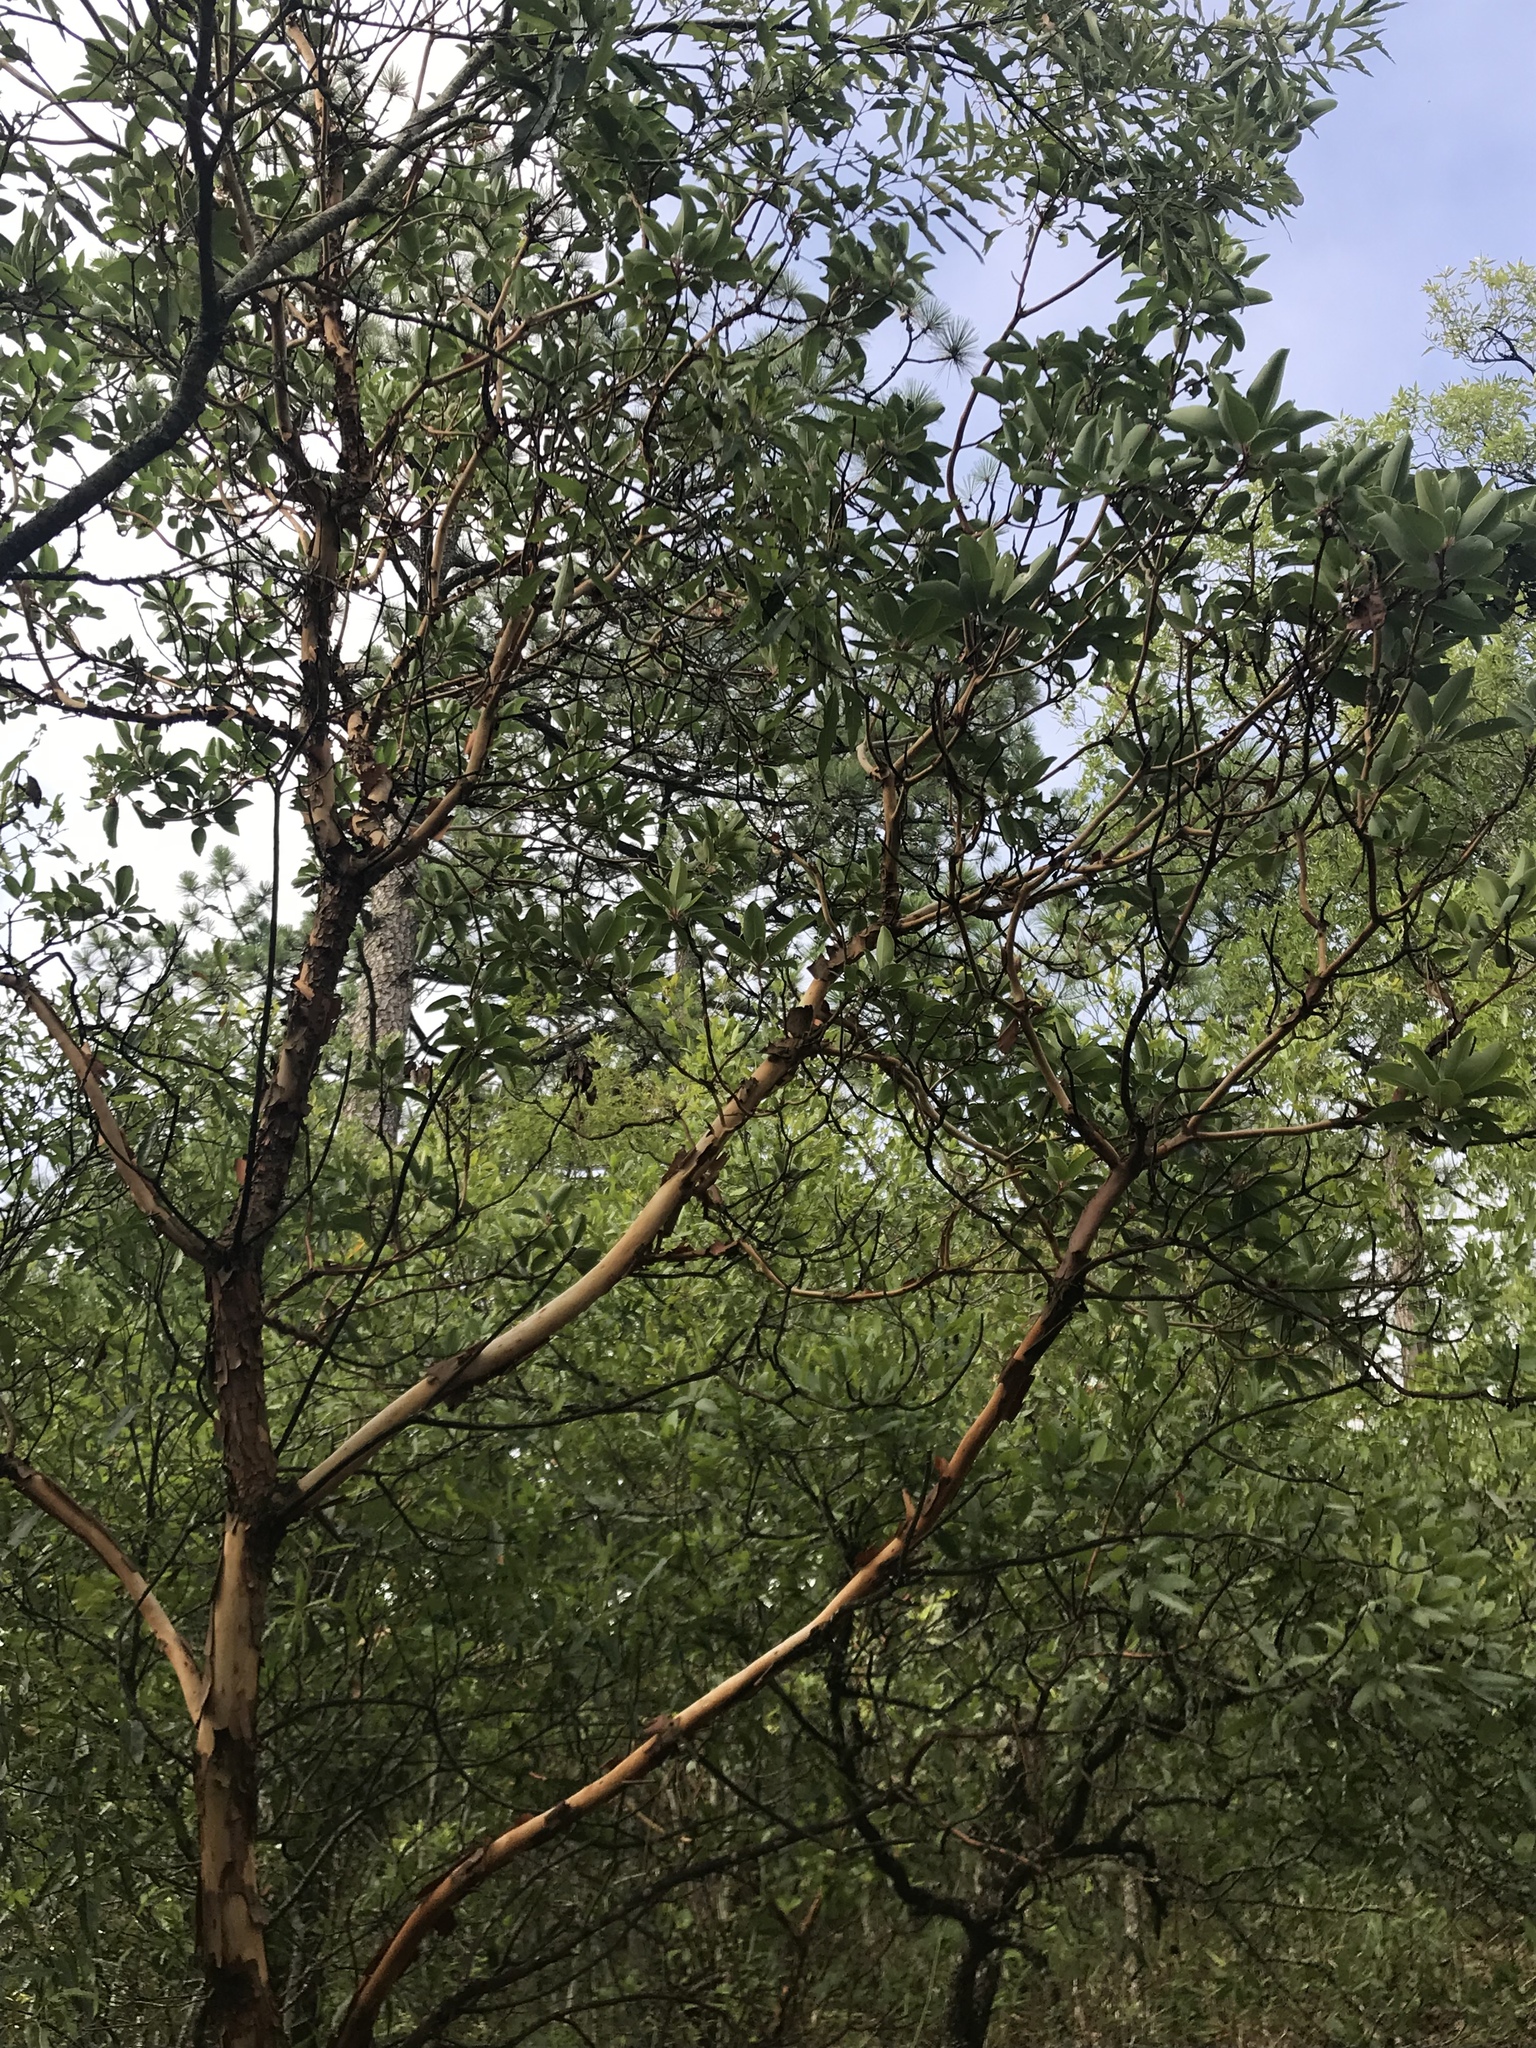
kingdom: Plantae
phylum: Tracheophyta
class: Magnoliopsida
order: Ericales
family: Ericaceae
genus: Arbutus
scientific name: Arbutus xalapensis
